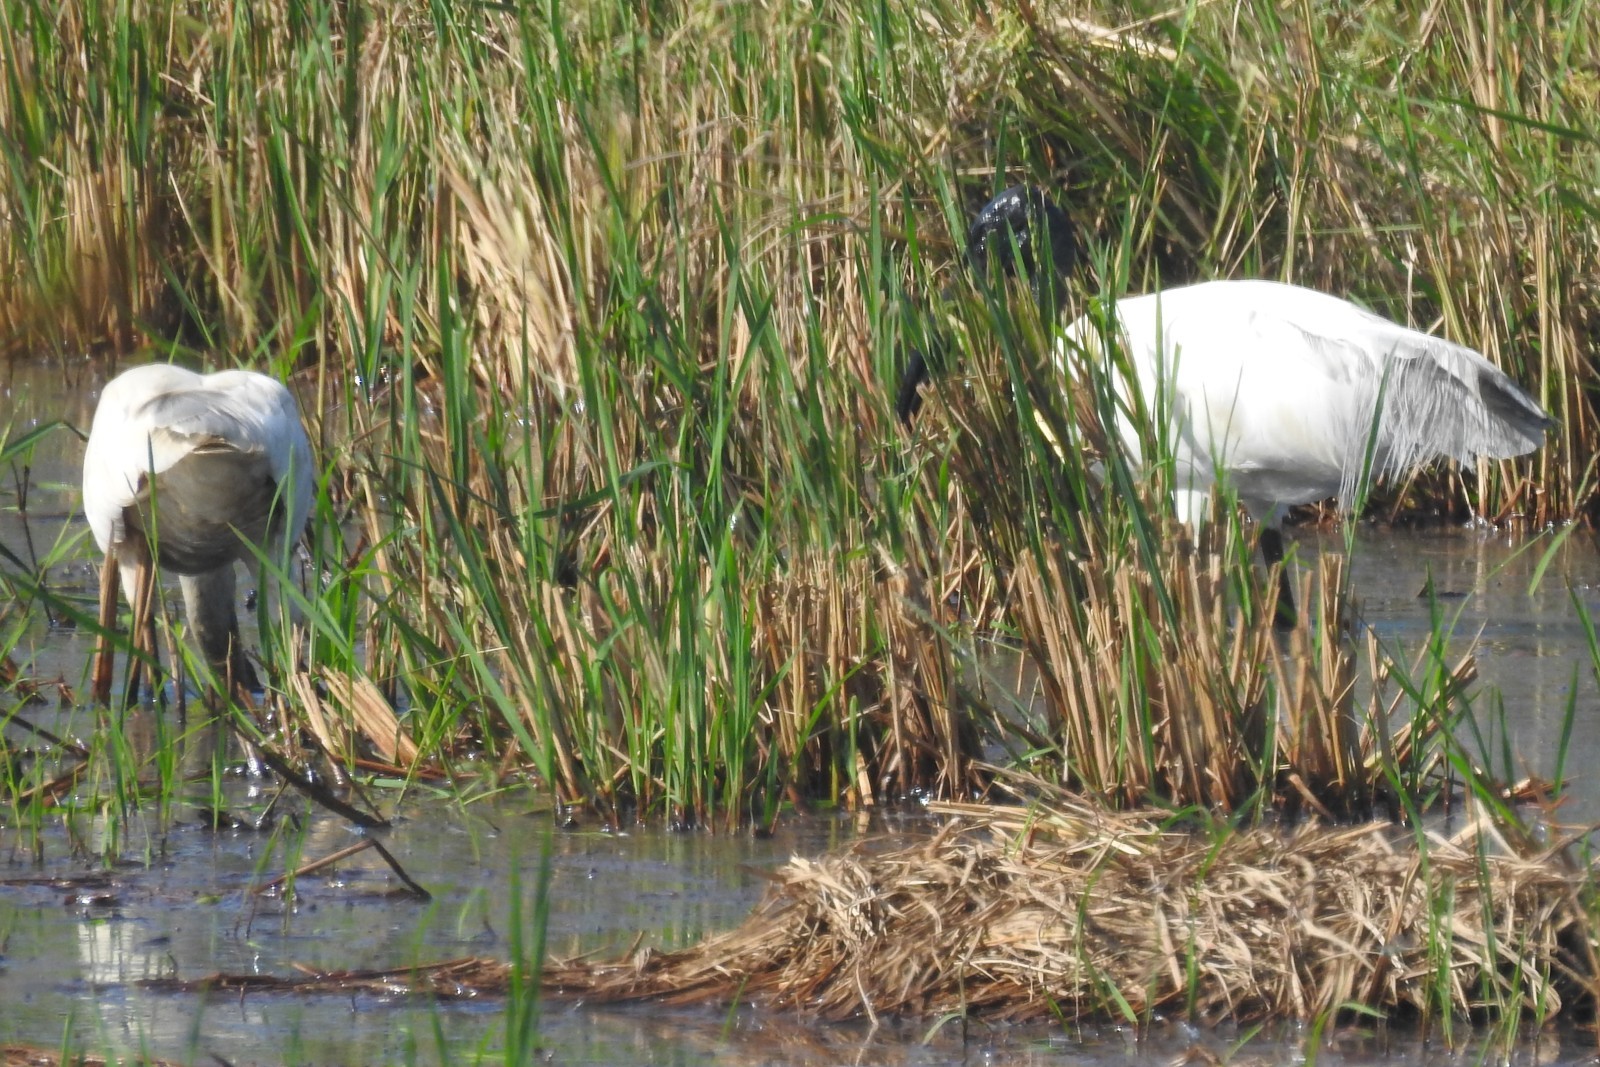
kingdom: Animalia
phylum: Chordata
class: Aves
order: Pelecaniformes
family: Threskiornithidae
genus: Threskiornis
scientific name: Threskiornis melanocephalus
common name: Black-headed ibis
